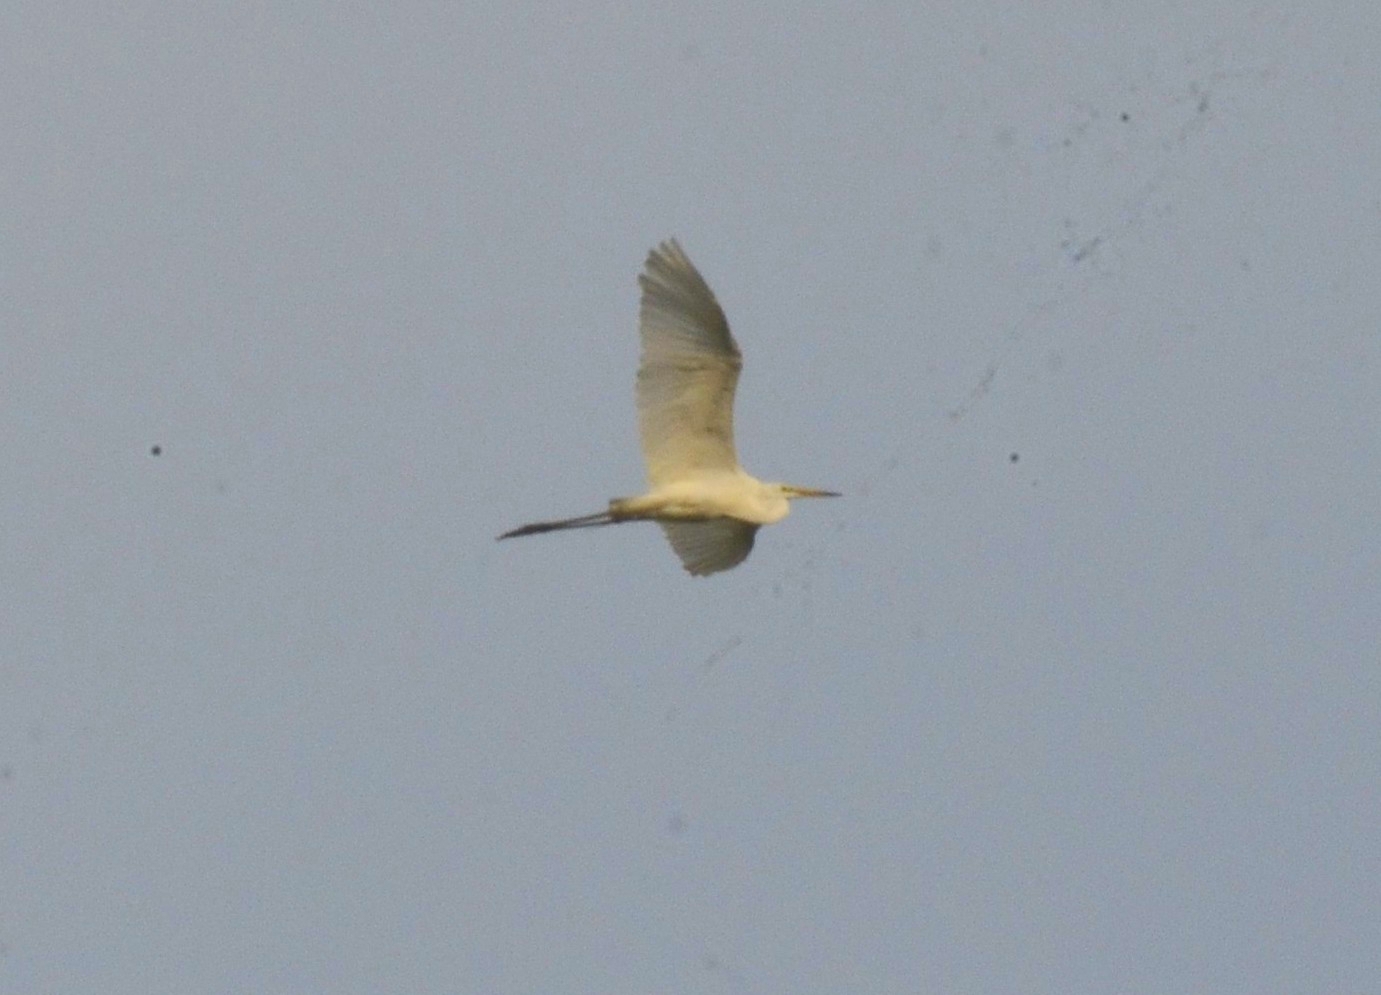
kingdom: Animalia
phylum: Chordata
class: Aves
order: Pelecaniformes
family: Ardeidae
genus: Egretta
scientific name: Egretta intermedia
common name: Intermediate egret
